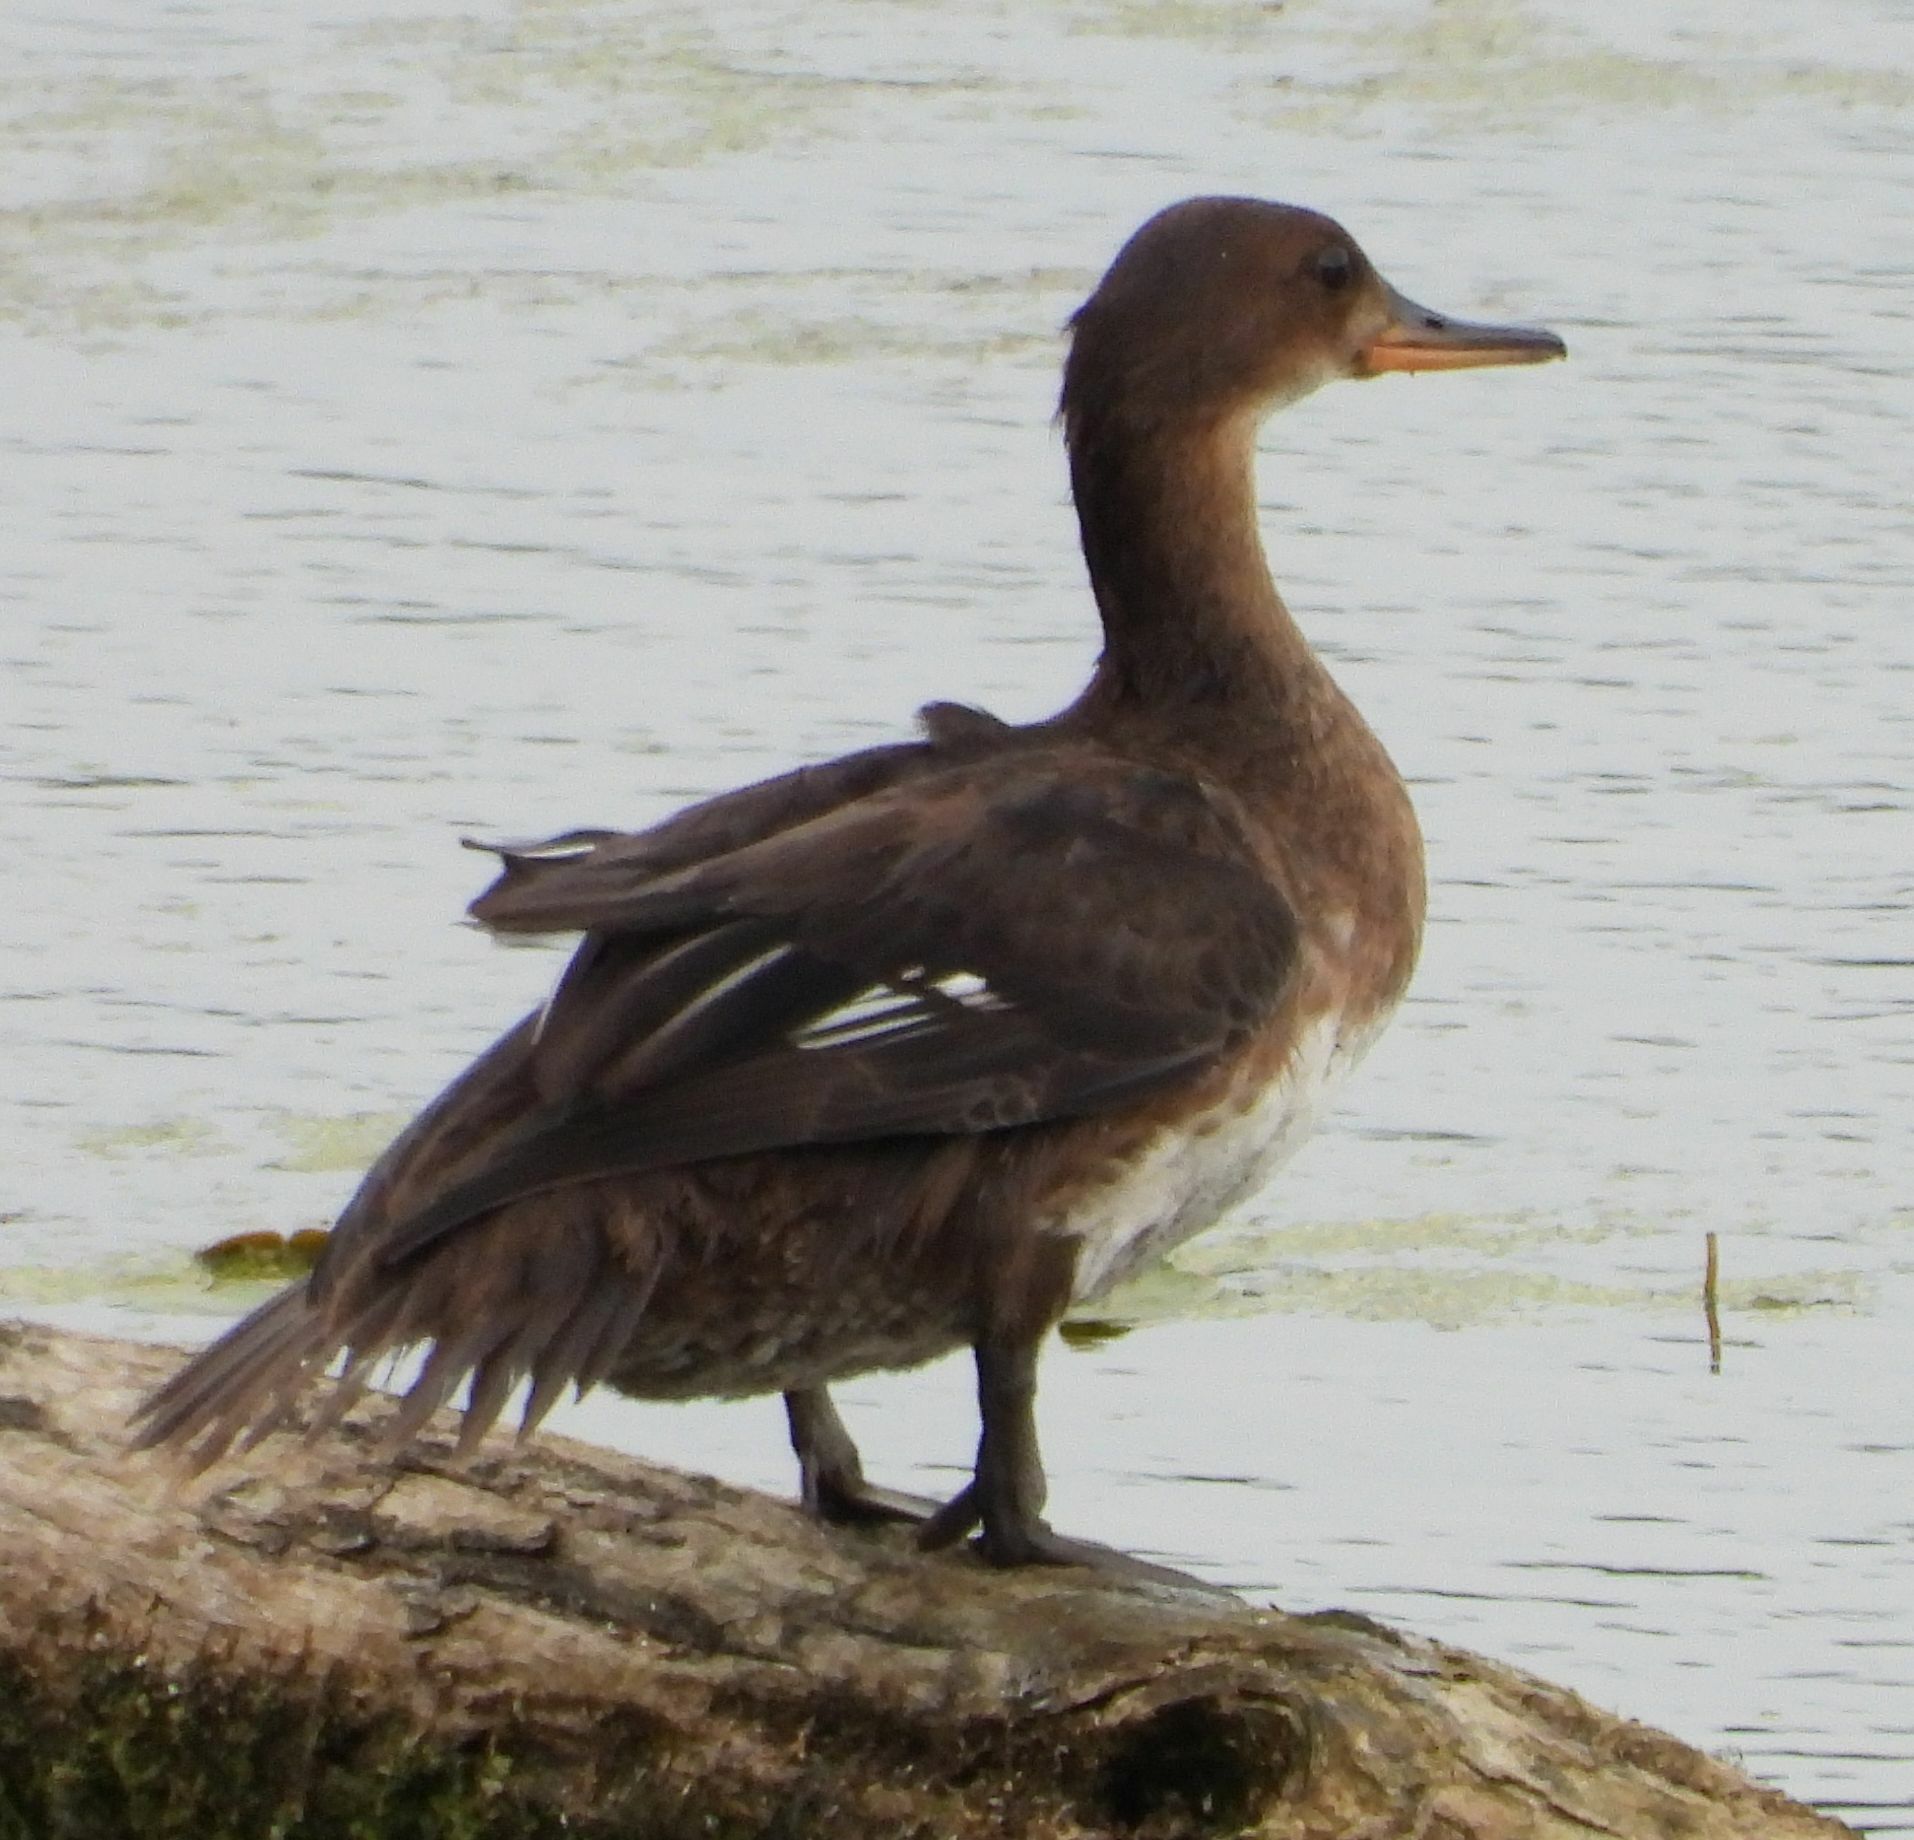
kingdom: Animalia
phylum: Chordata
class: Aves
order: Anseriformes
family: Anatidae
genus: Lophodytes
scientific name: Lophodytes cucullatus
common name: Hooded merganser
